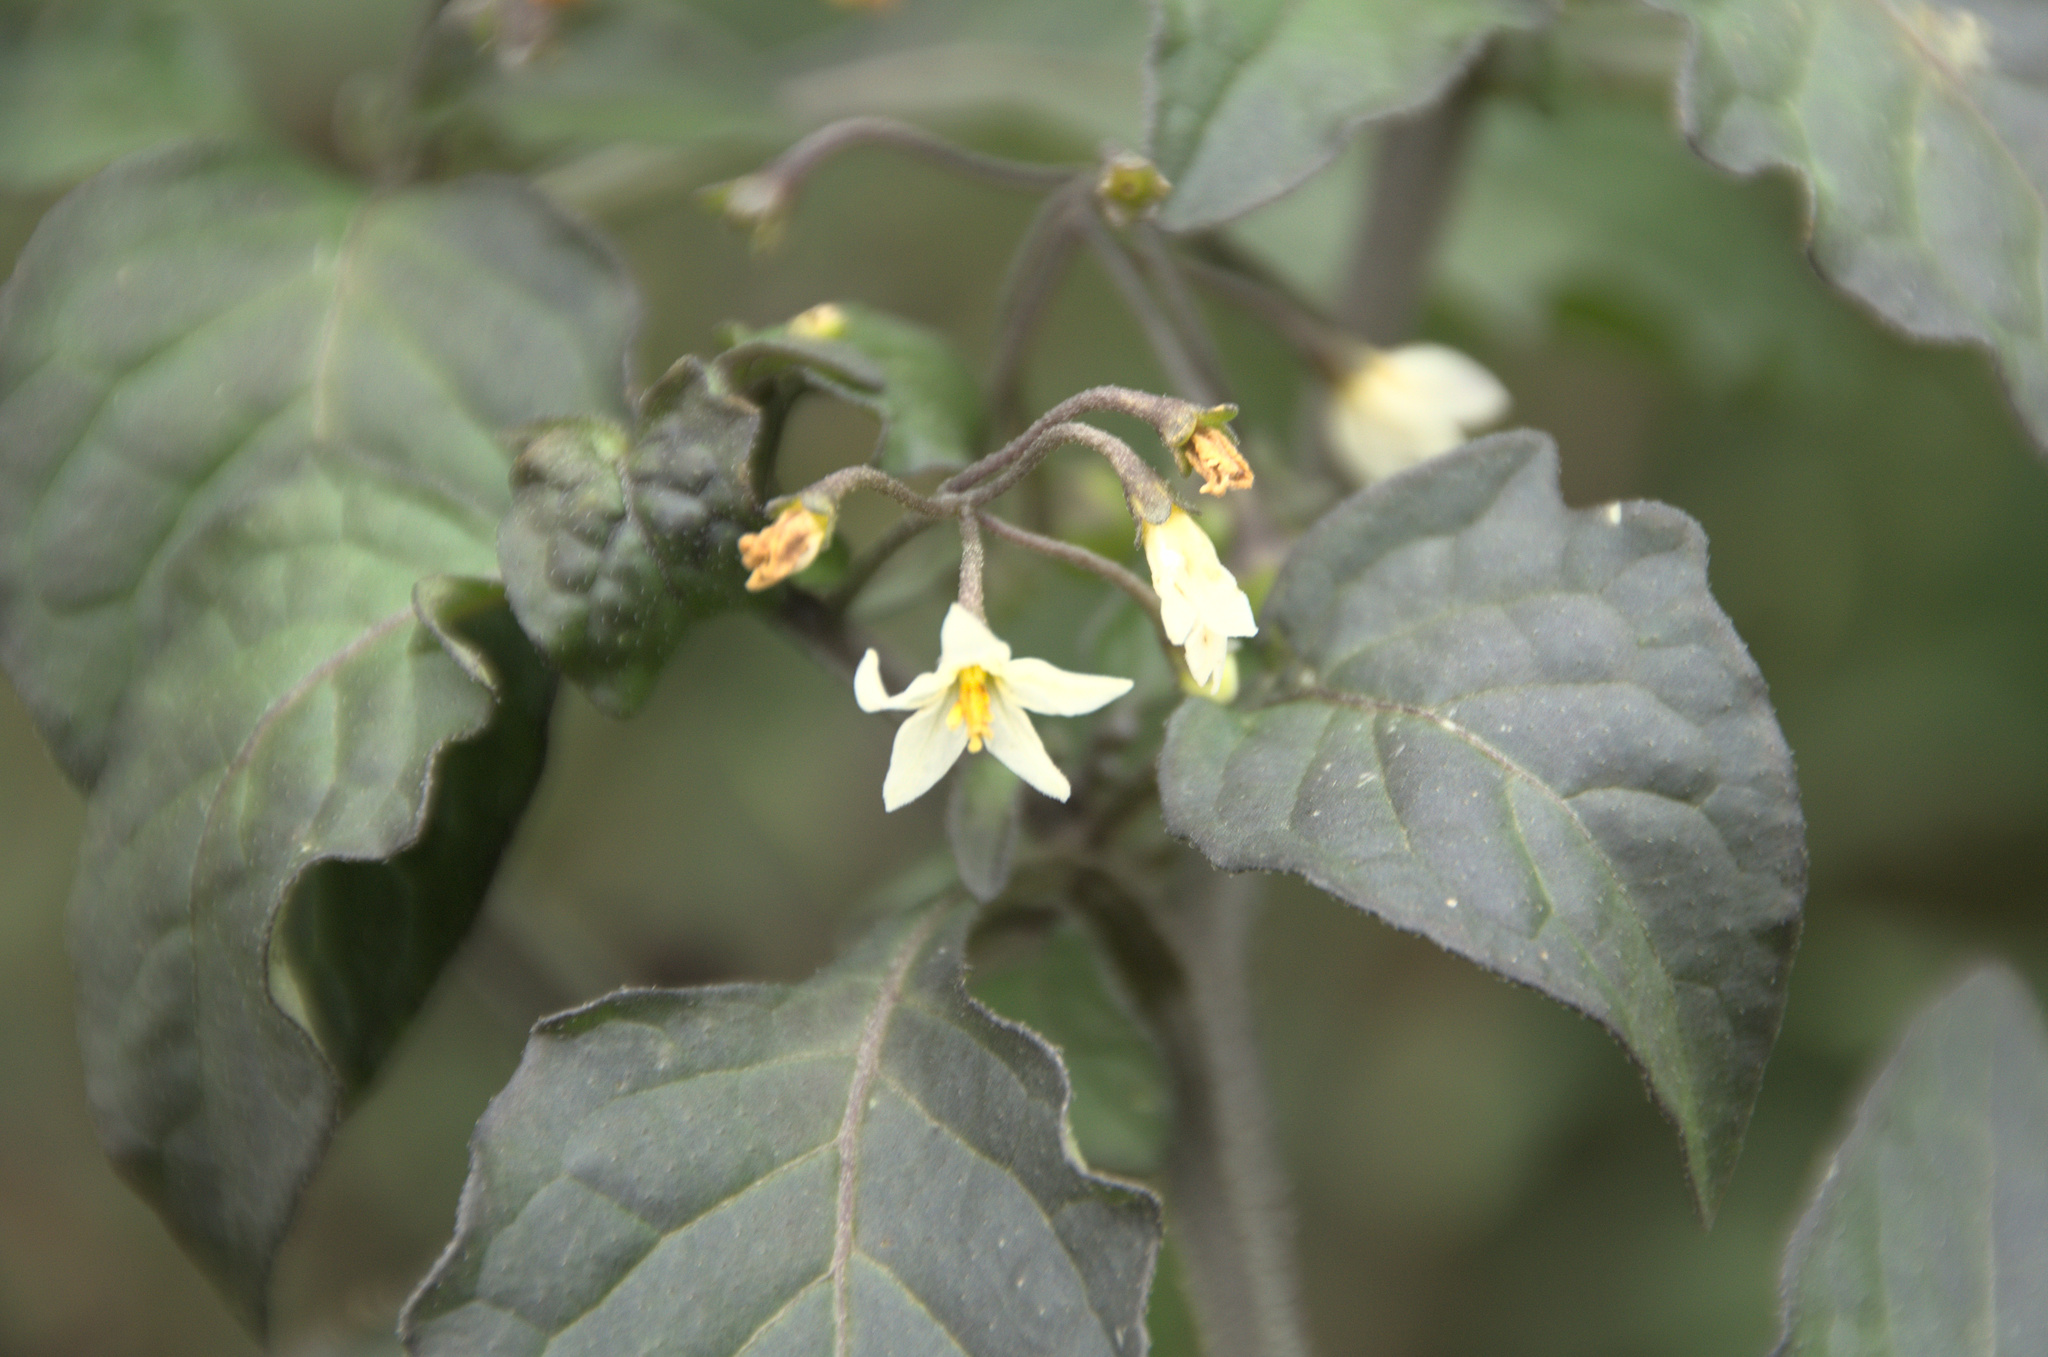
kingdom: Plantae
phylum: Tracheophyta
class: Magnoliopsida
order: Solanales
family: Solanaceae
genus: Solanum
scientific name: Solanum nigrum
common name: Black nightshade
